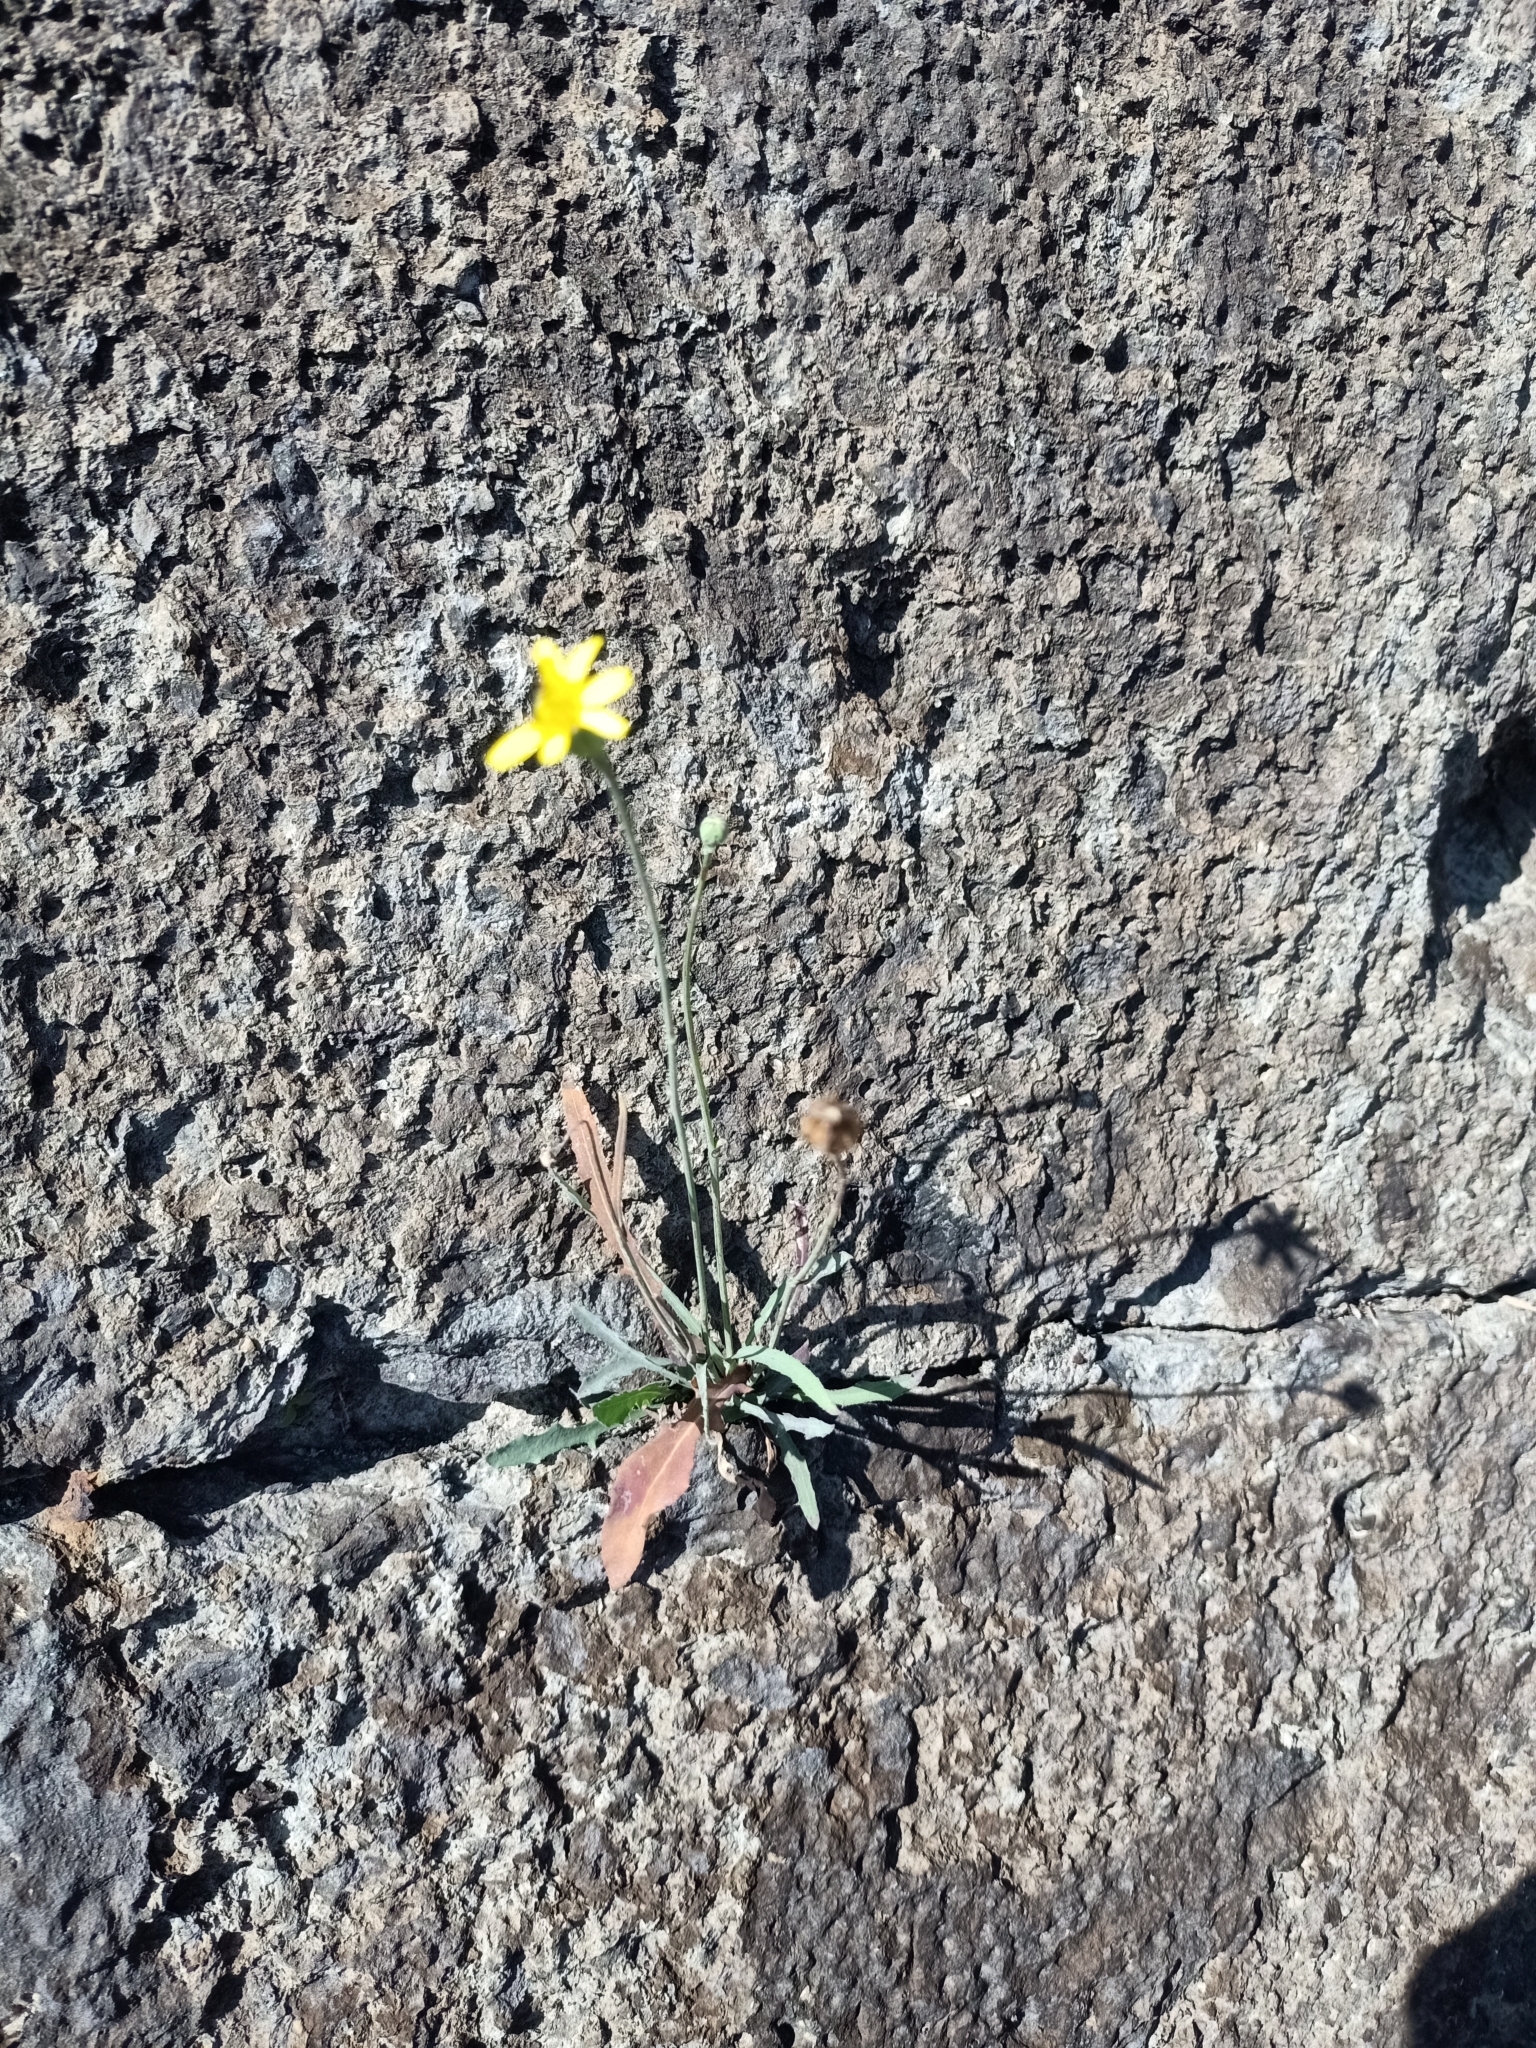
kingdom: Plantae
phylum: Tracheophyta
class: Magnoliopsida
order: Asterales
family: Asteraceae
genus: Reichardia
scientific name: Reichardia picroides
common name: Common brighteyes
